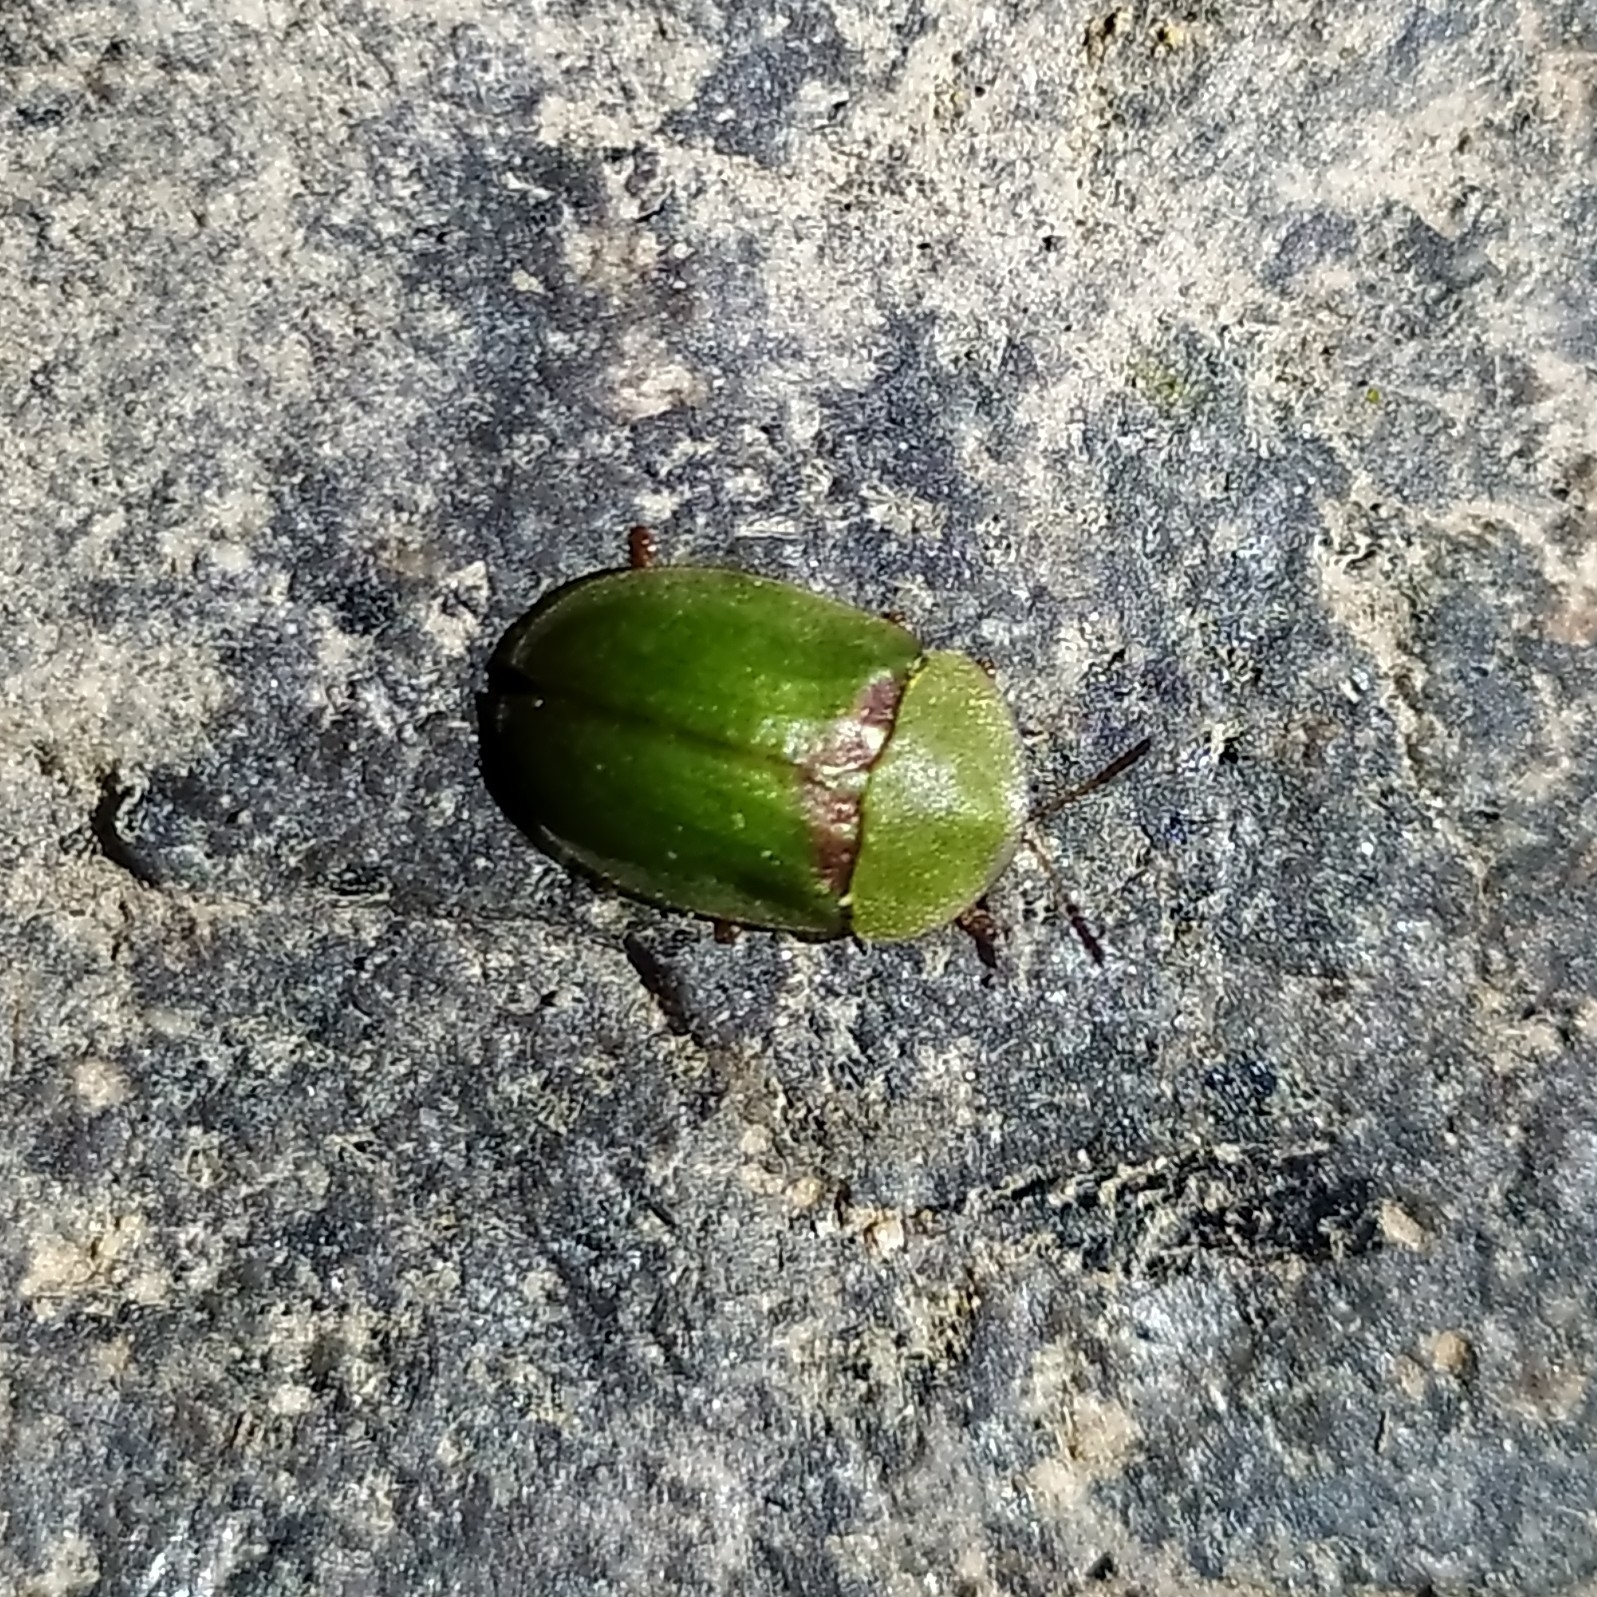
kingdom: Animalia
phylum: Arthropoda
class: Insecta
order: Coleoptera
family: Chrysomelidae
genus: Cassida
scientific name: Cassida denticollis
